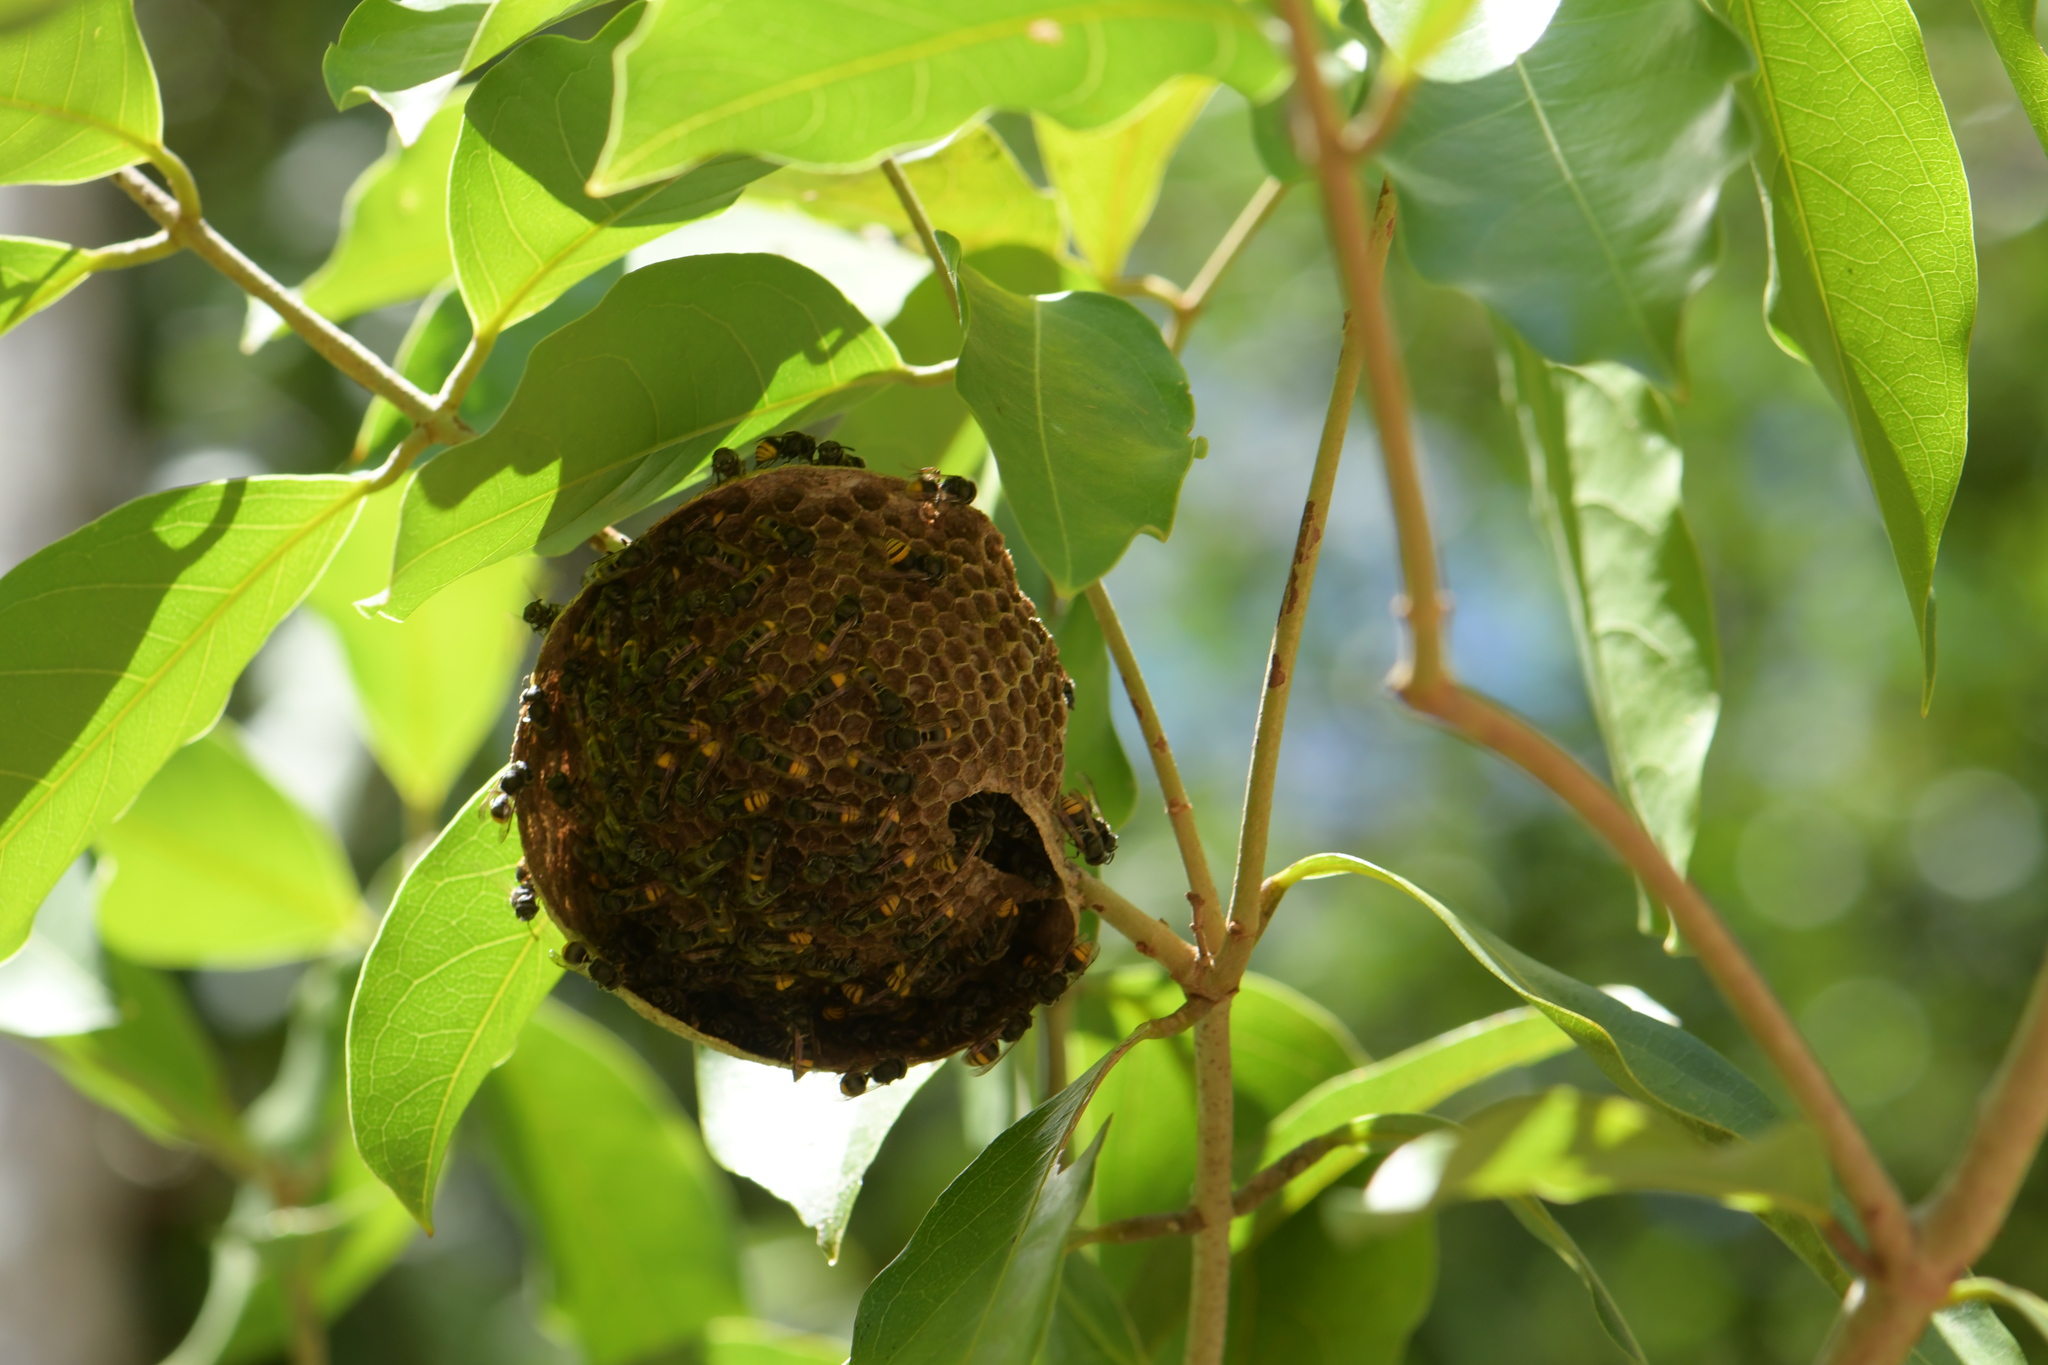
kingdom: Animalia
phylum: Arthropoda
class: Insecta
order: Hymenoptera
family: Vespidae
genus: Brachygastra
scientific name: Brachygastra azteca
